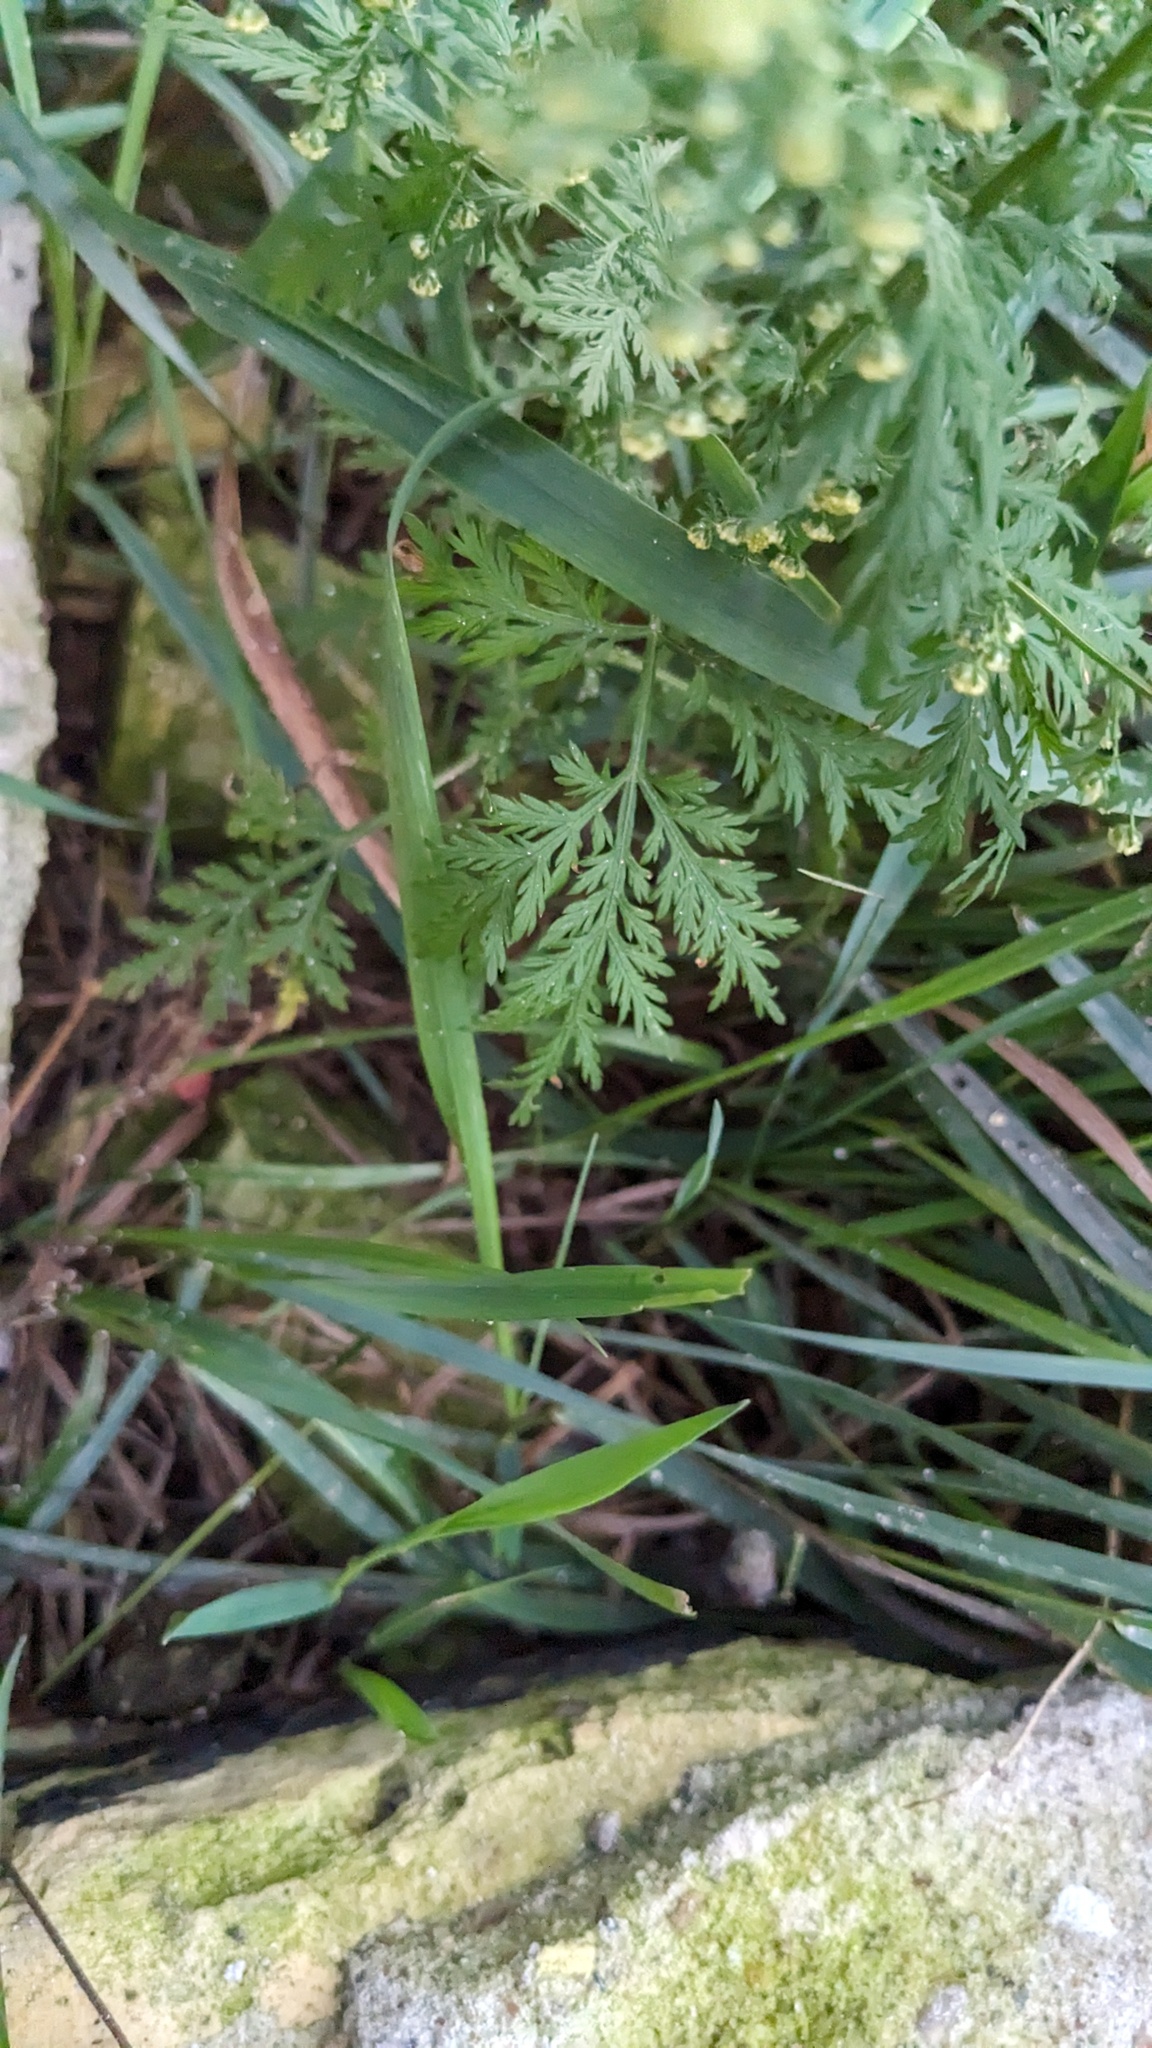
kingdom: Plantae
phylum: Tracheophyta
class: Magnoliopsida
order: Asterales
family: Asteraceae
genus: Artemisia
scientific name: Artemisia annua
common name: Sweet sagewort
